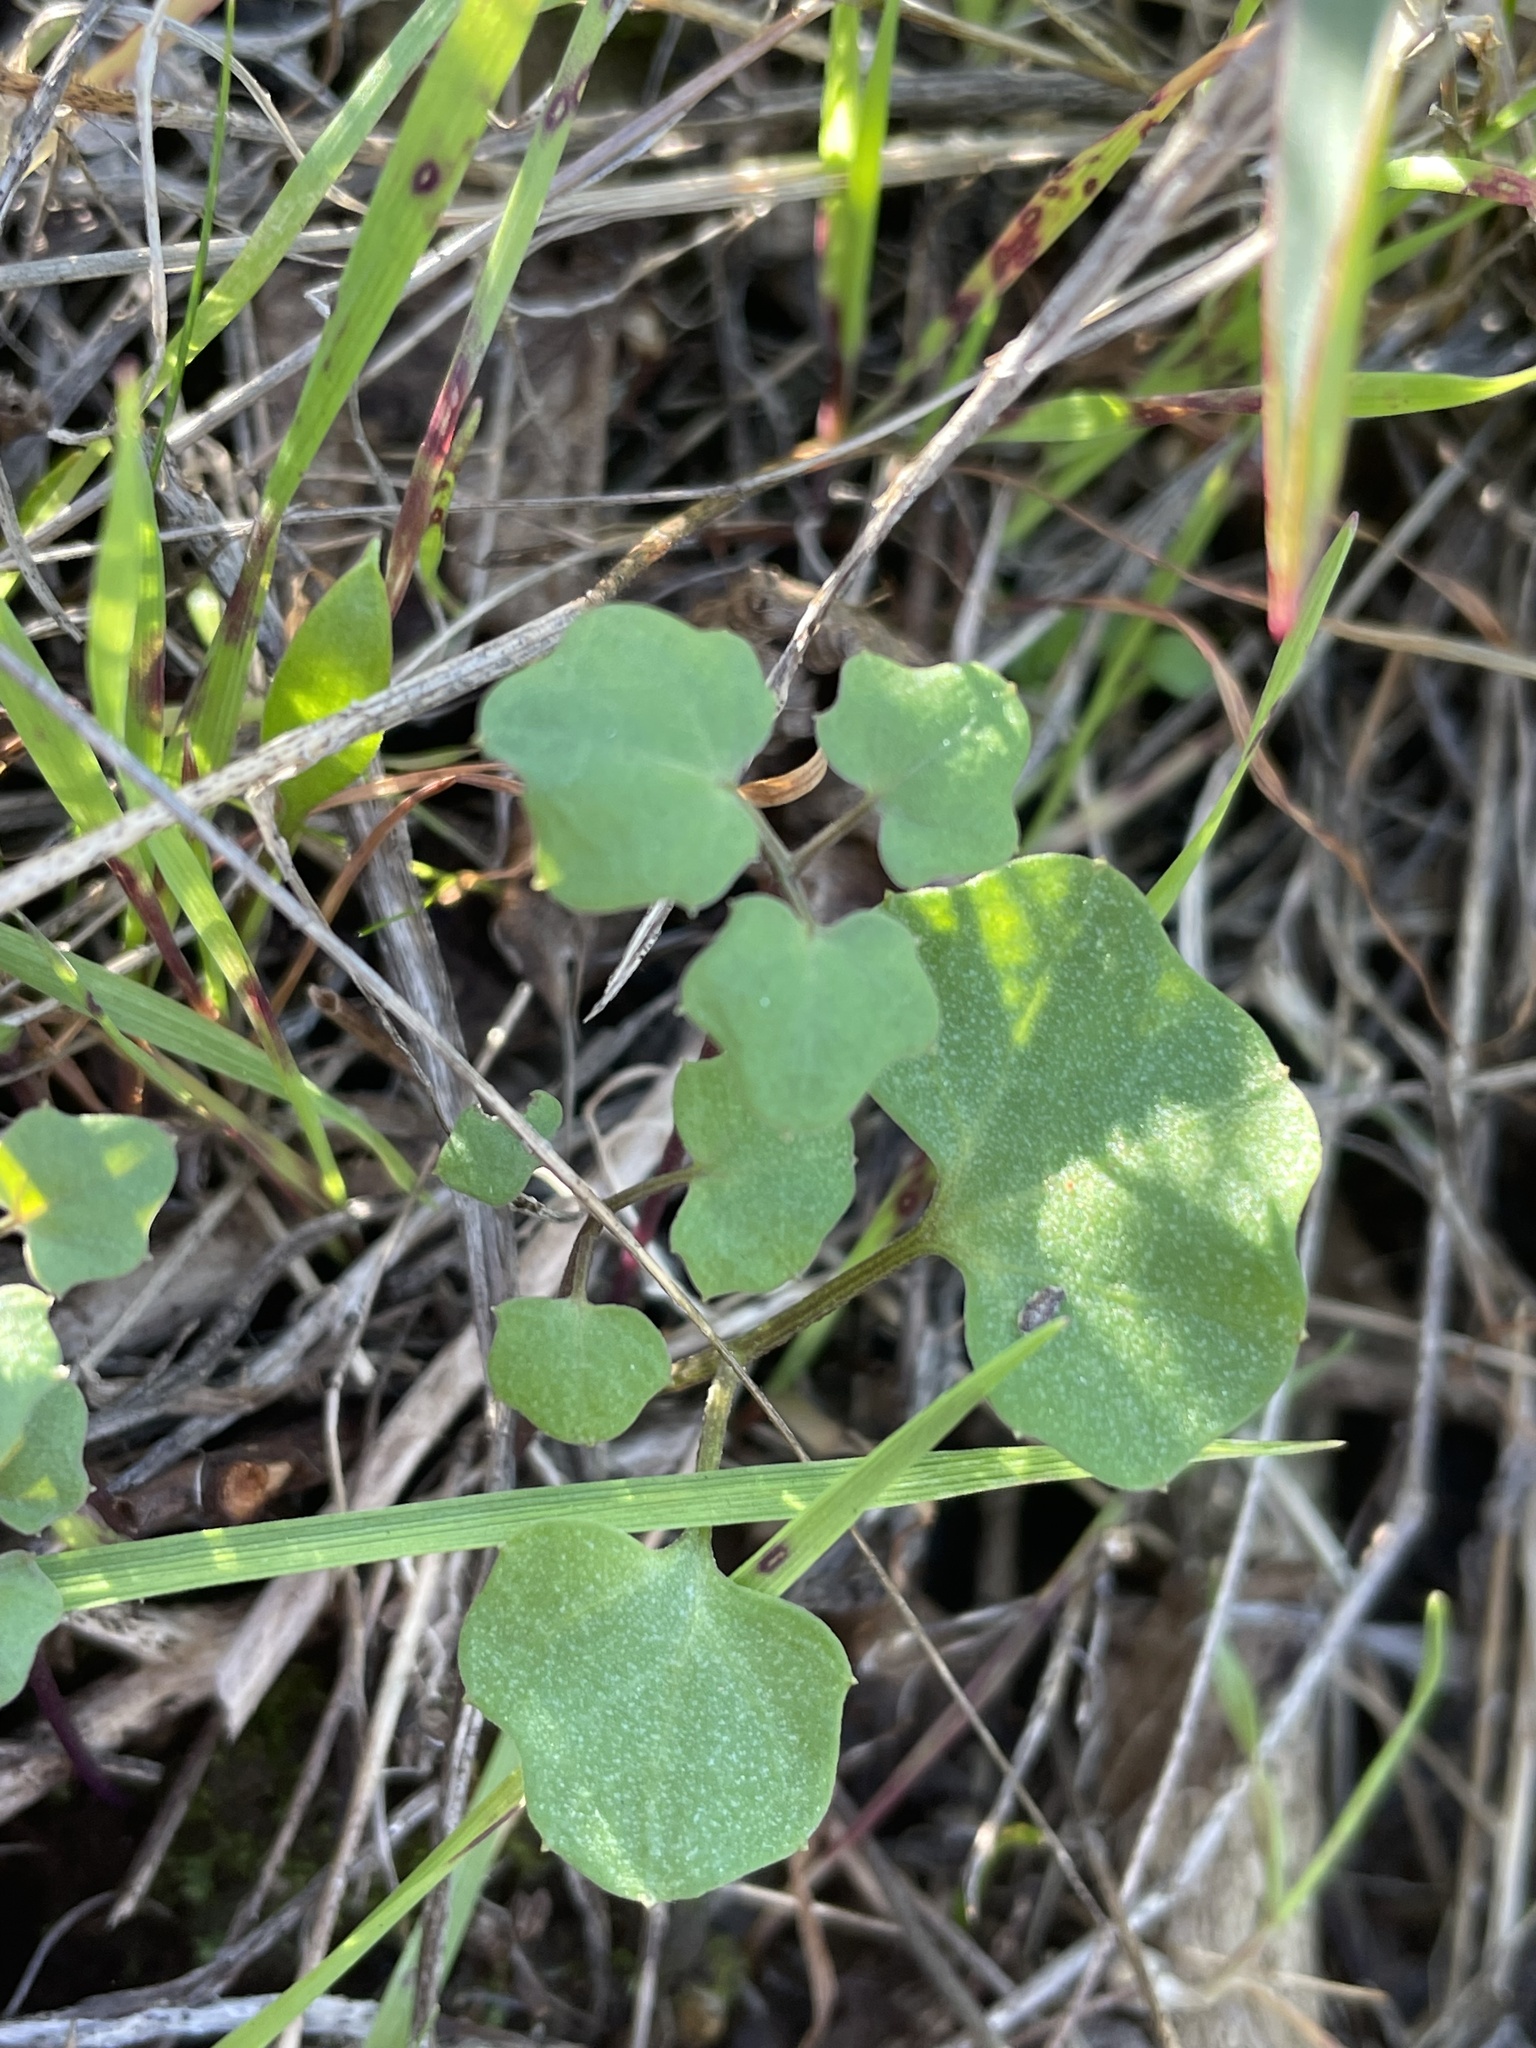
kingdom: Plantae
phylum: Tracheophyta
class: Magnoliopsida
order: Brassicales
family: Brassicaceae
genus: Cardamine
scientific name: Cardamine californica
